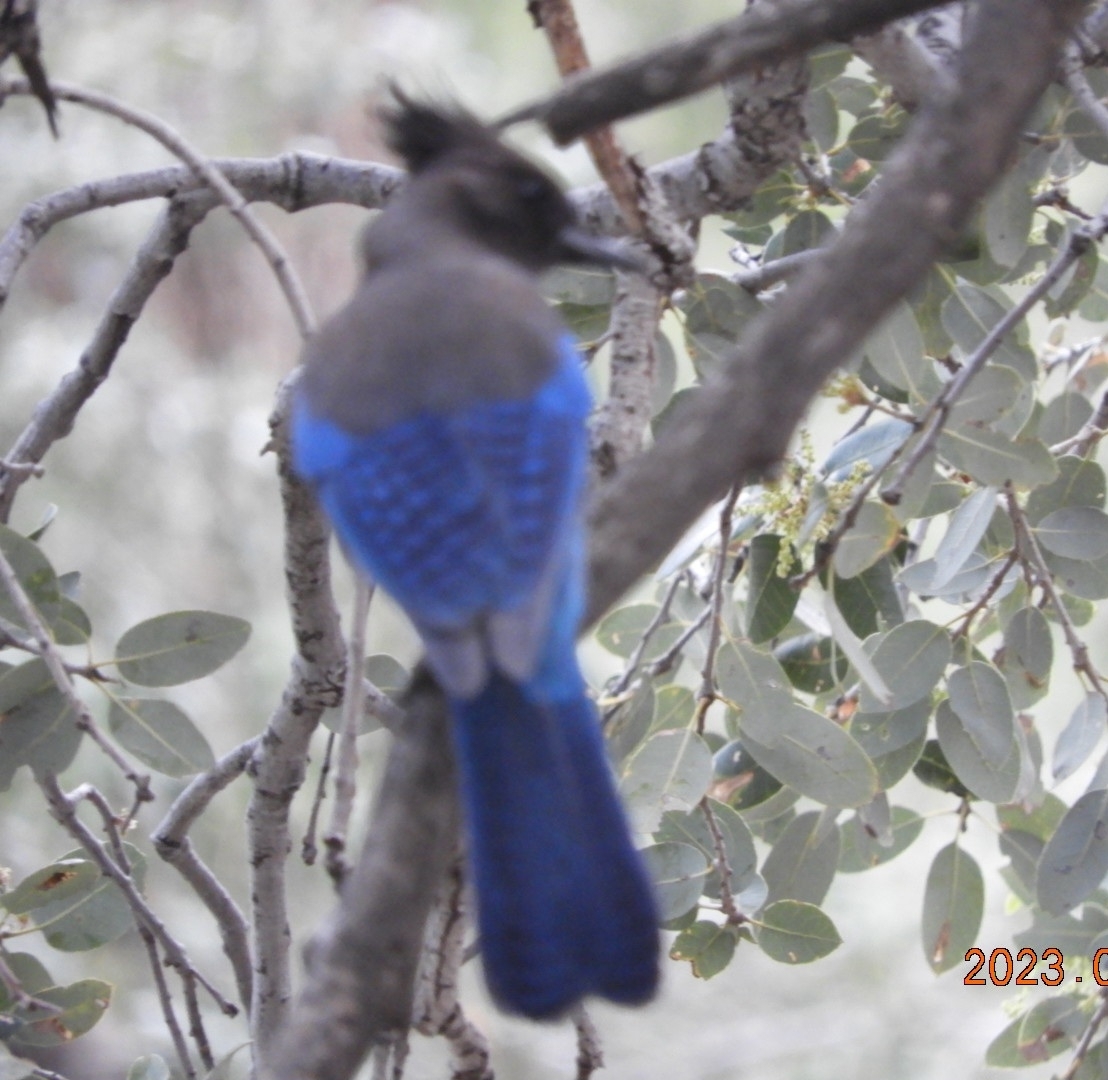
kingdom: Animalia
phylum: Chordata
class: Aves
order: Passeriformes
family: Corvidae
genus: Cyanocitta
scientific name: Cyanocitta stelleri
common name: Steller's jay
